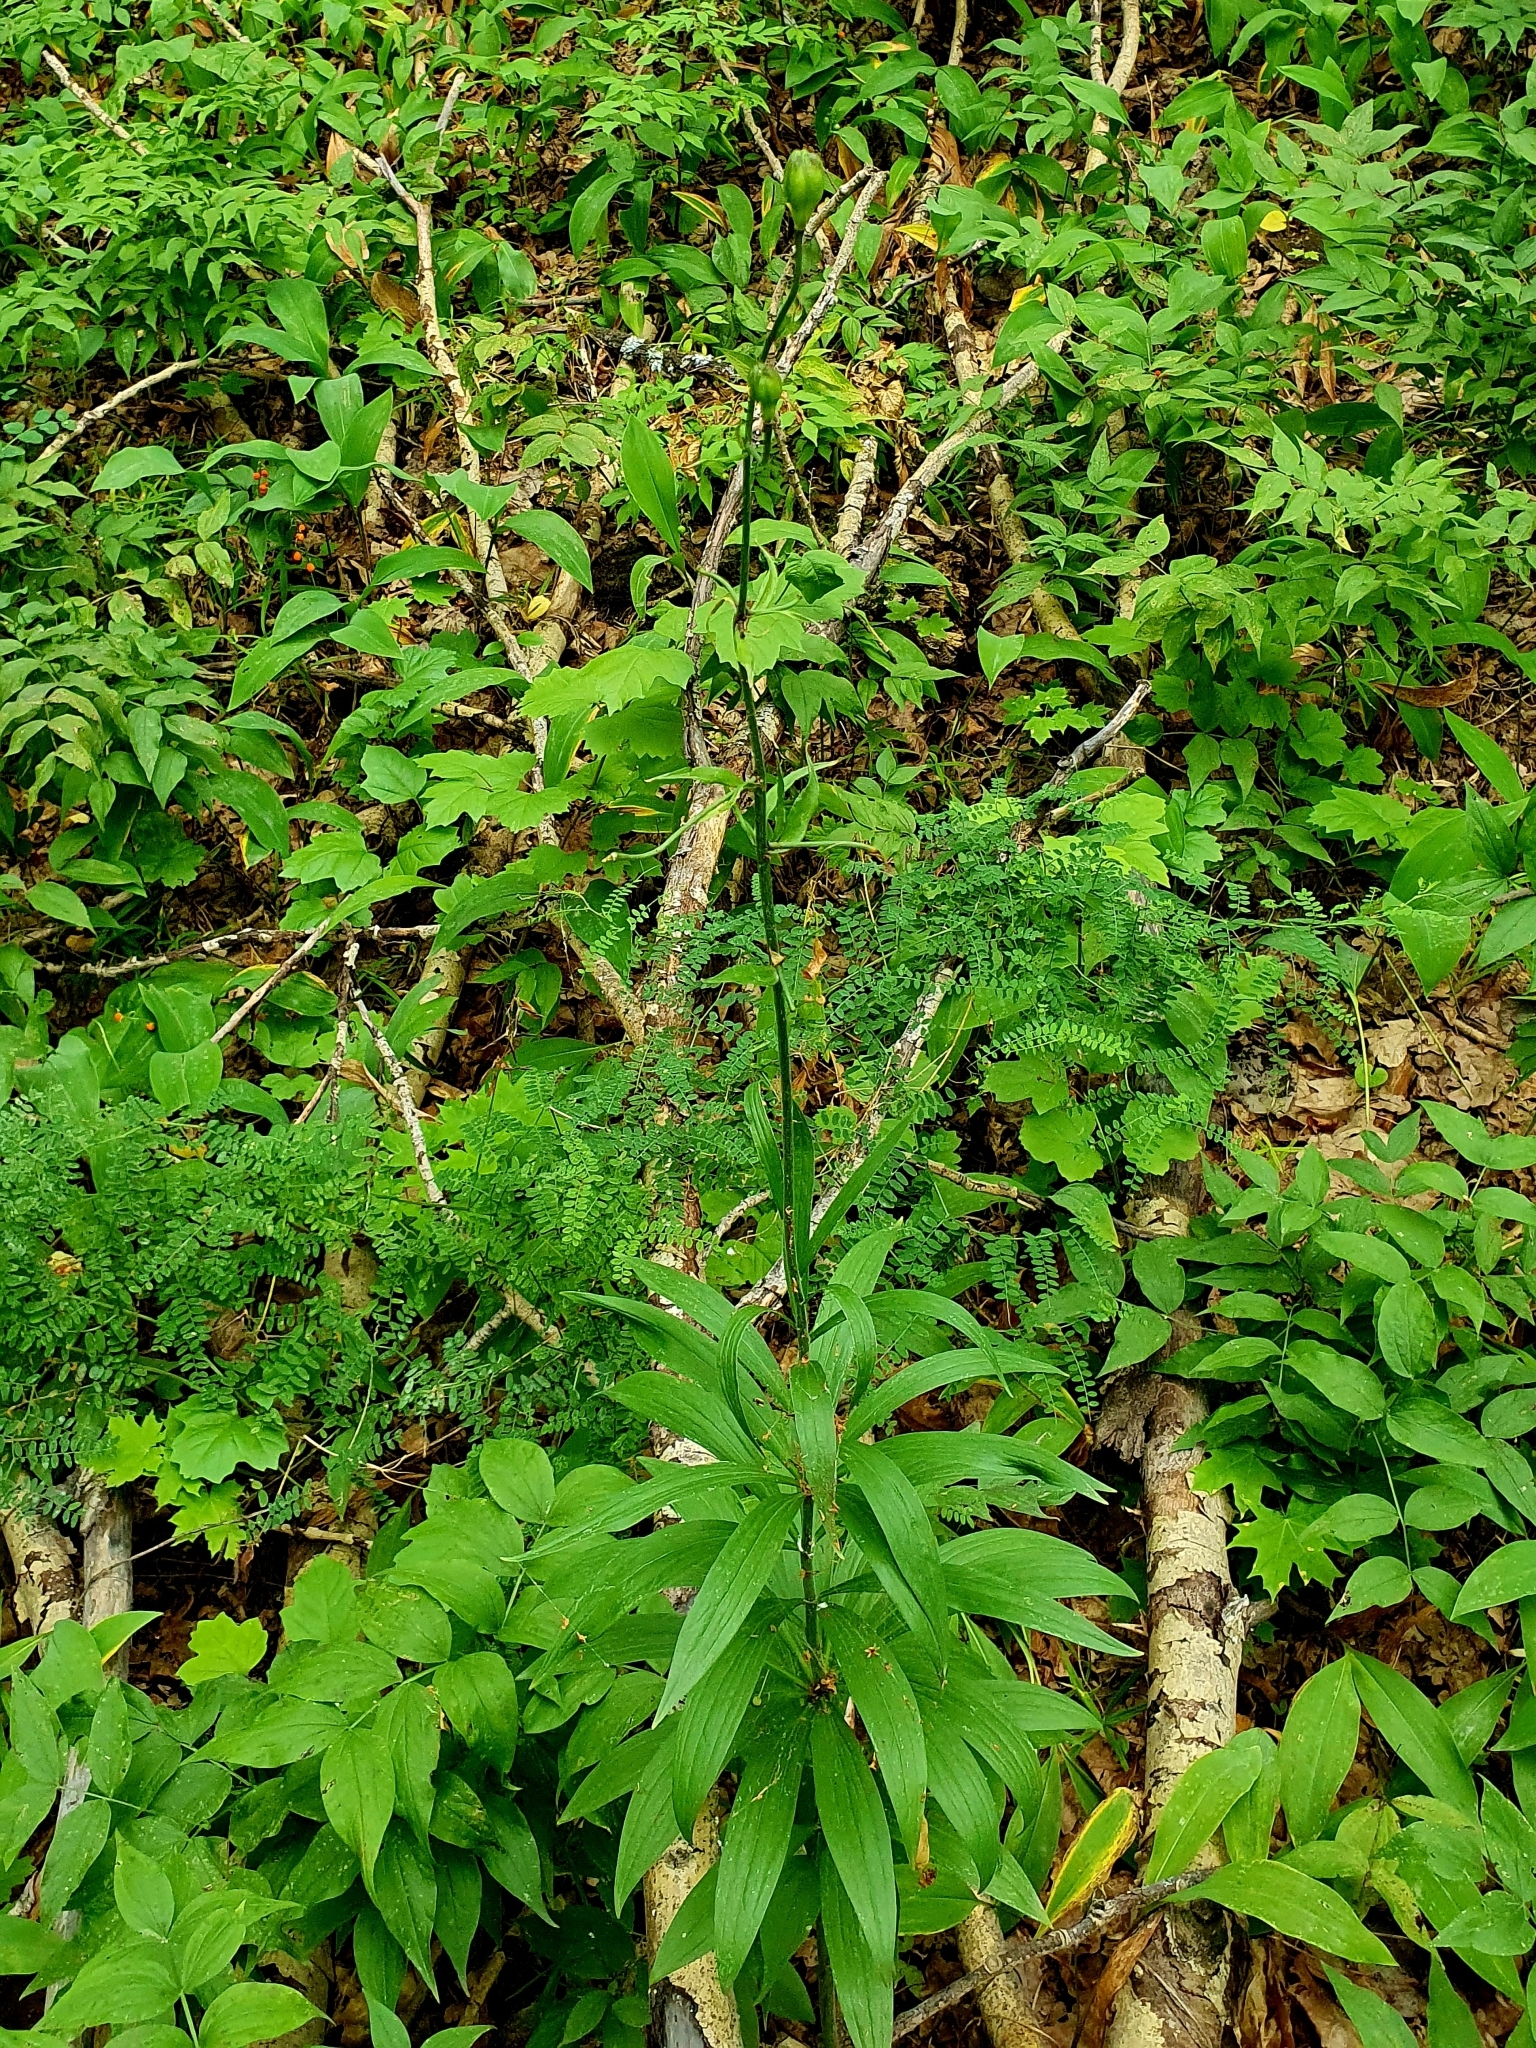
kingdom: Plantae
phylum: Tracheophyta
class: Liliopsida
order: Liliales
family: Liliaceae
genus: Lilium
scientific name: Lilium martagon
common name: Martagon lily
